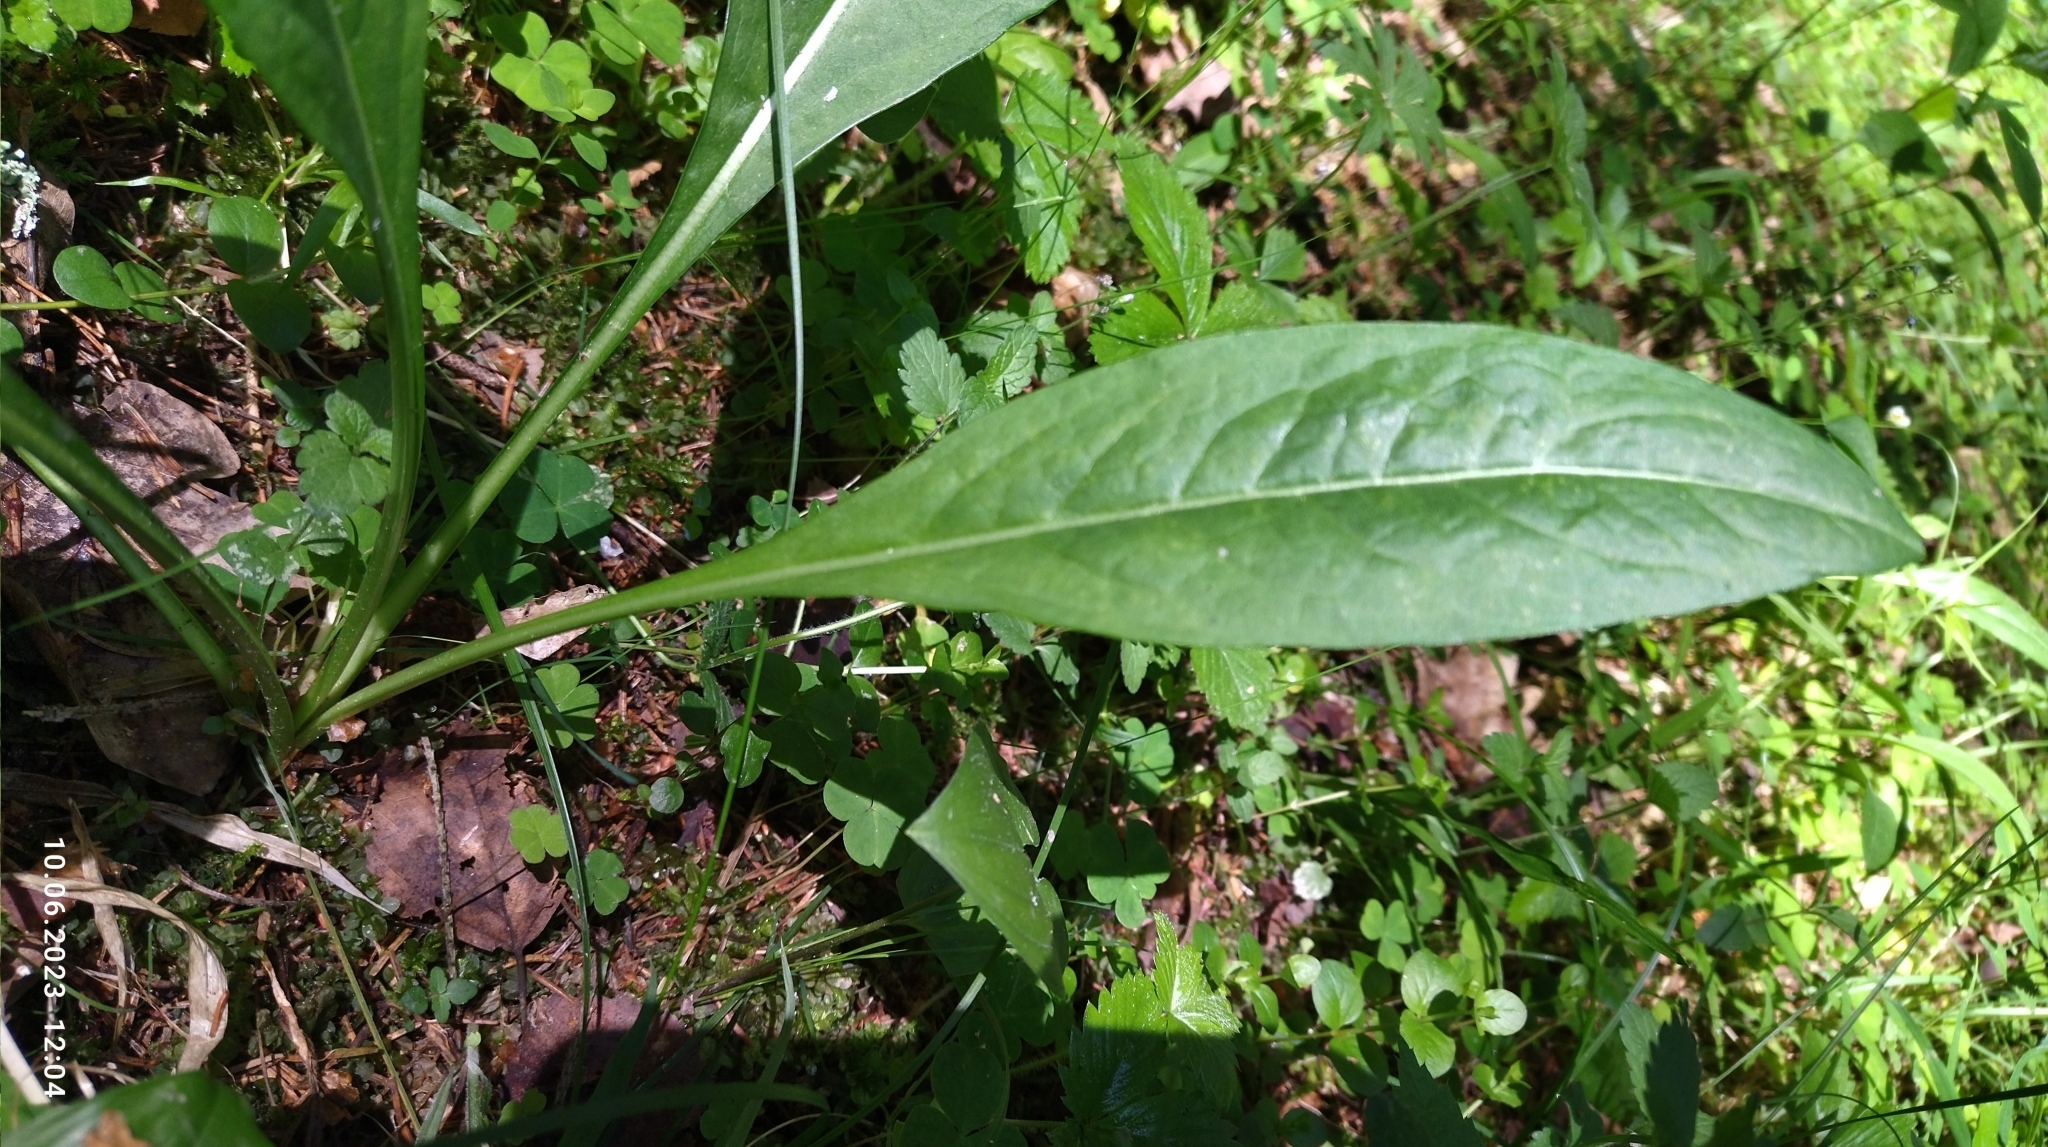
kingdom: Plantae
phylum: Tracheophyta
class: Magnoliopsida
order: Dipsacales
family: Caprifoliaceae
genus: Succisa
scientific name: Succisa pratensis
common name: Devil's-bit
